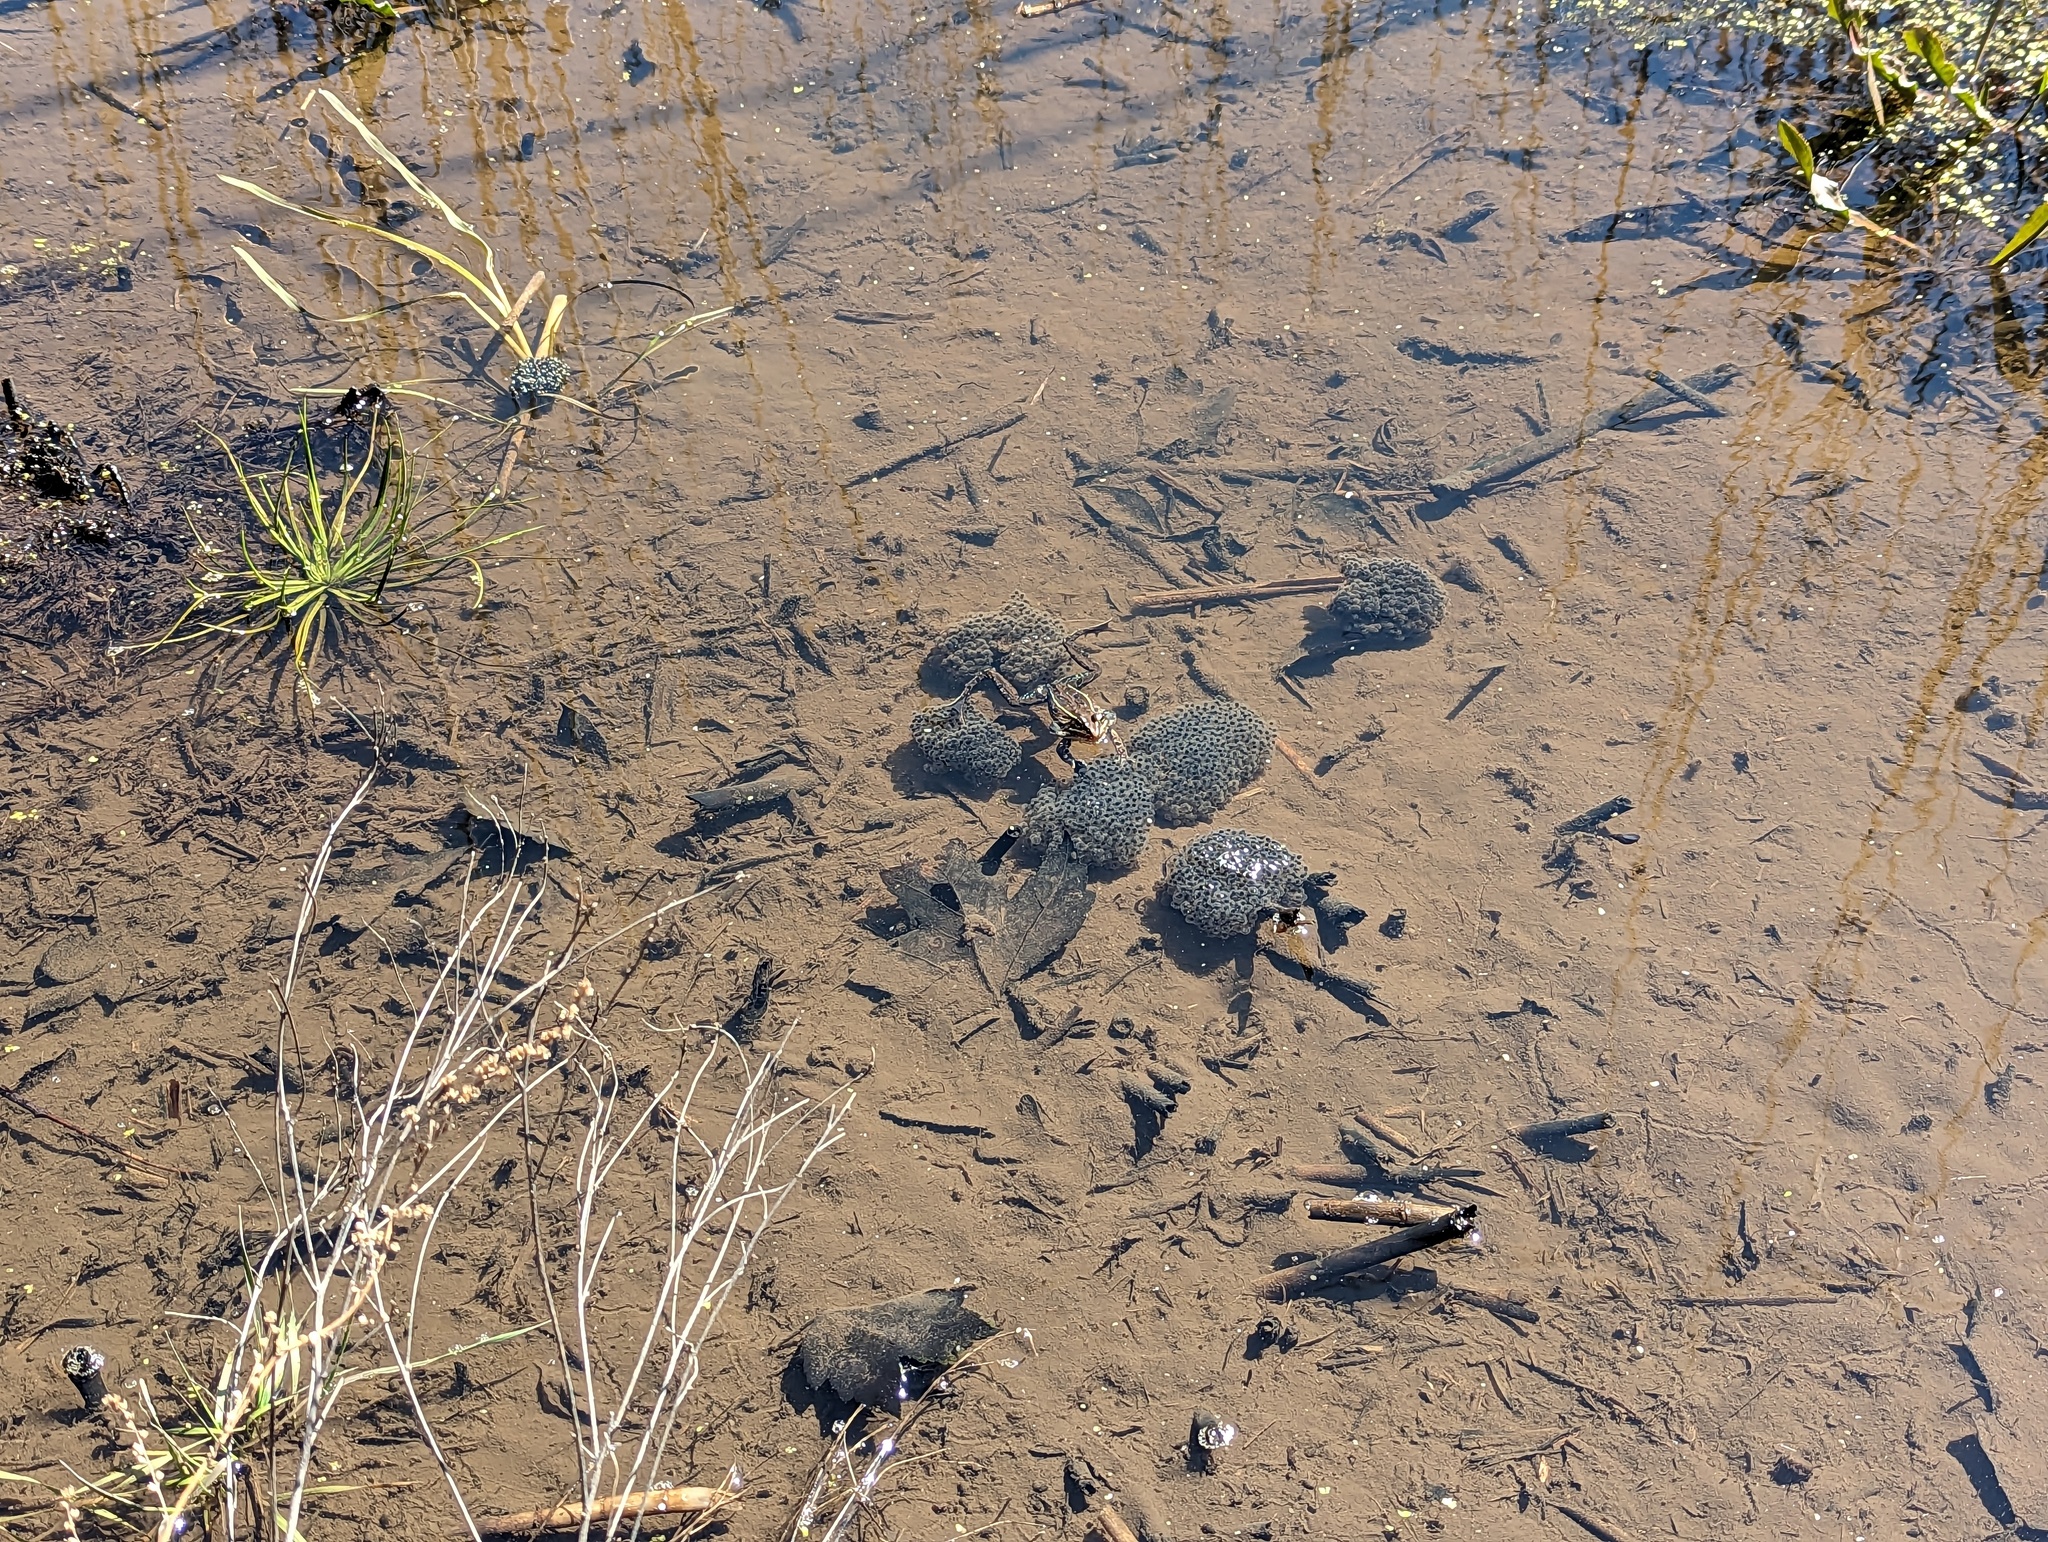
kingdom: Animalia
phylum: Chordata
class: Amphibia
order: Anura
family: Ranidae
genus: Lithobates
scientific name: Lithobates kauffeldi
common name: Mid-atlantic coast leopard frog
